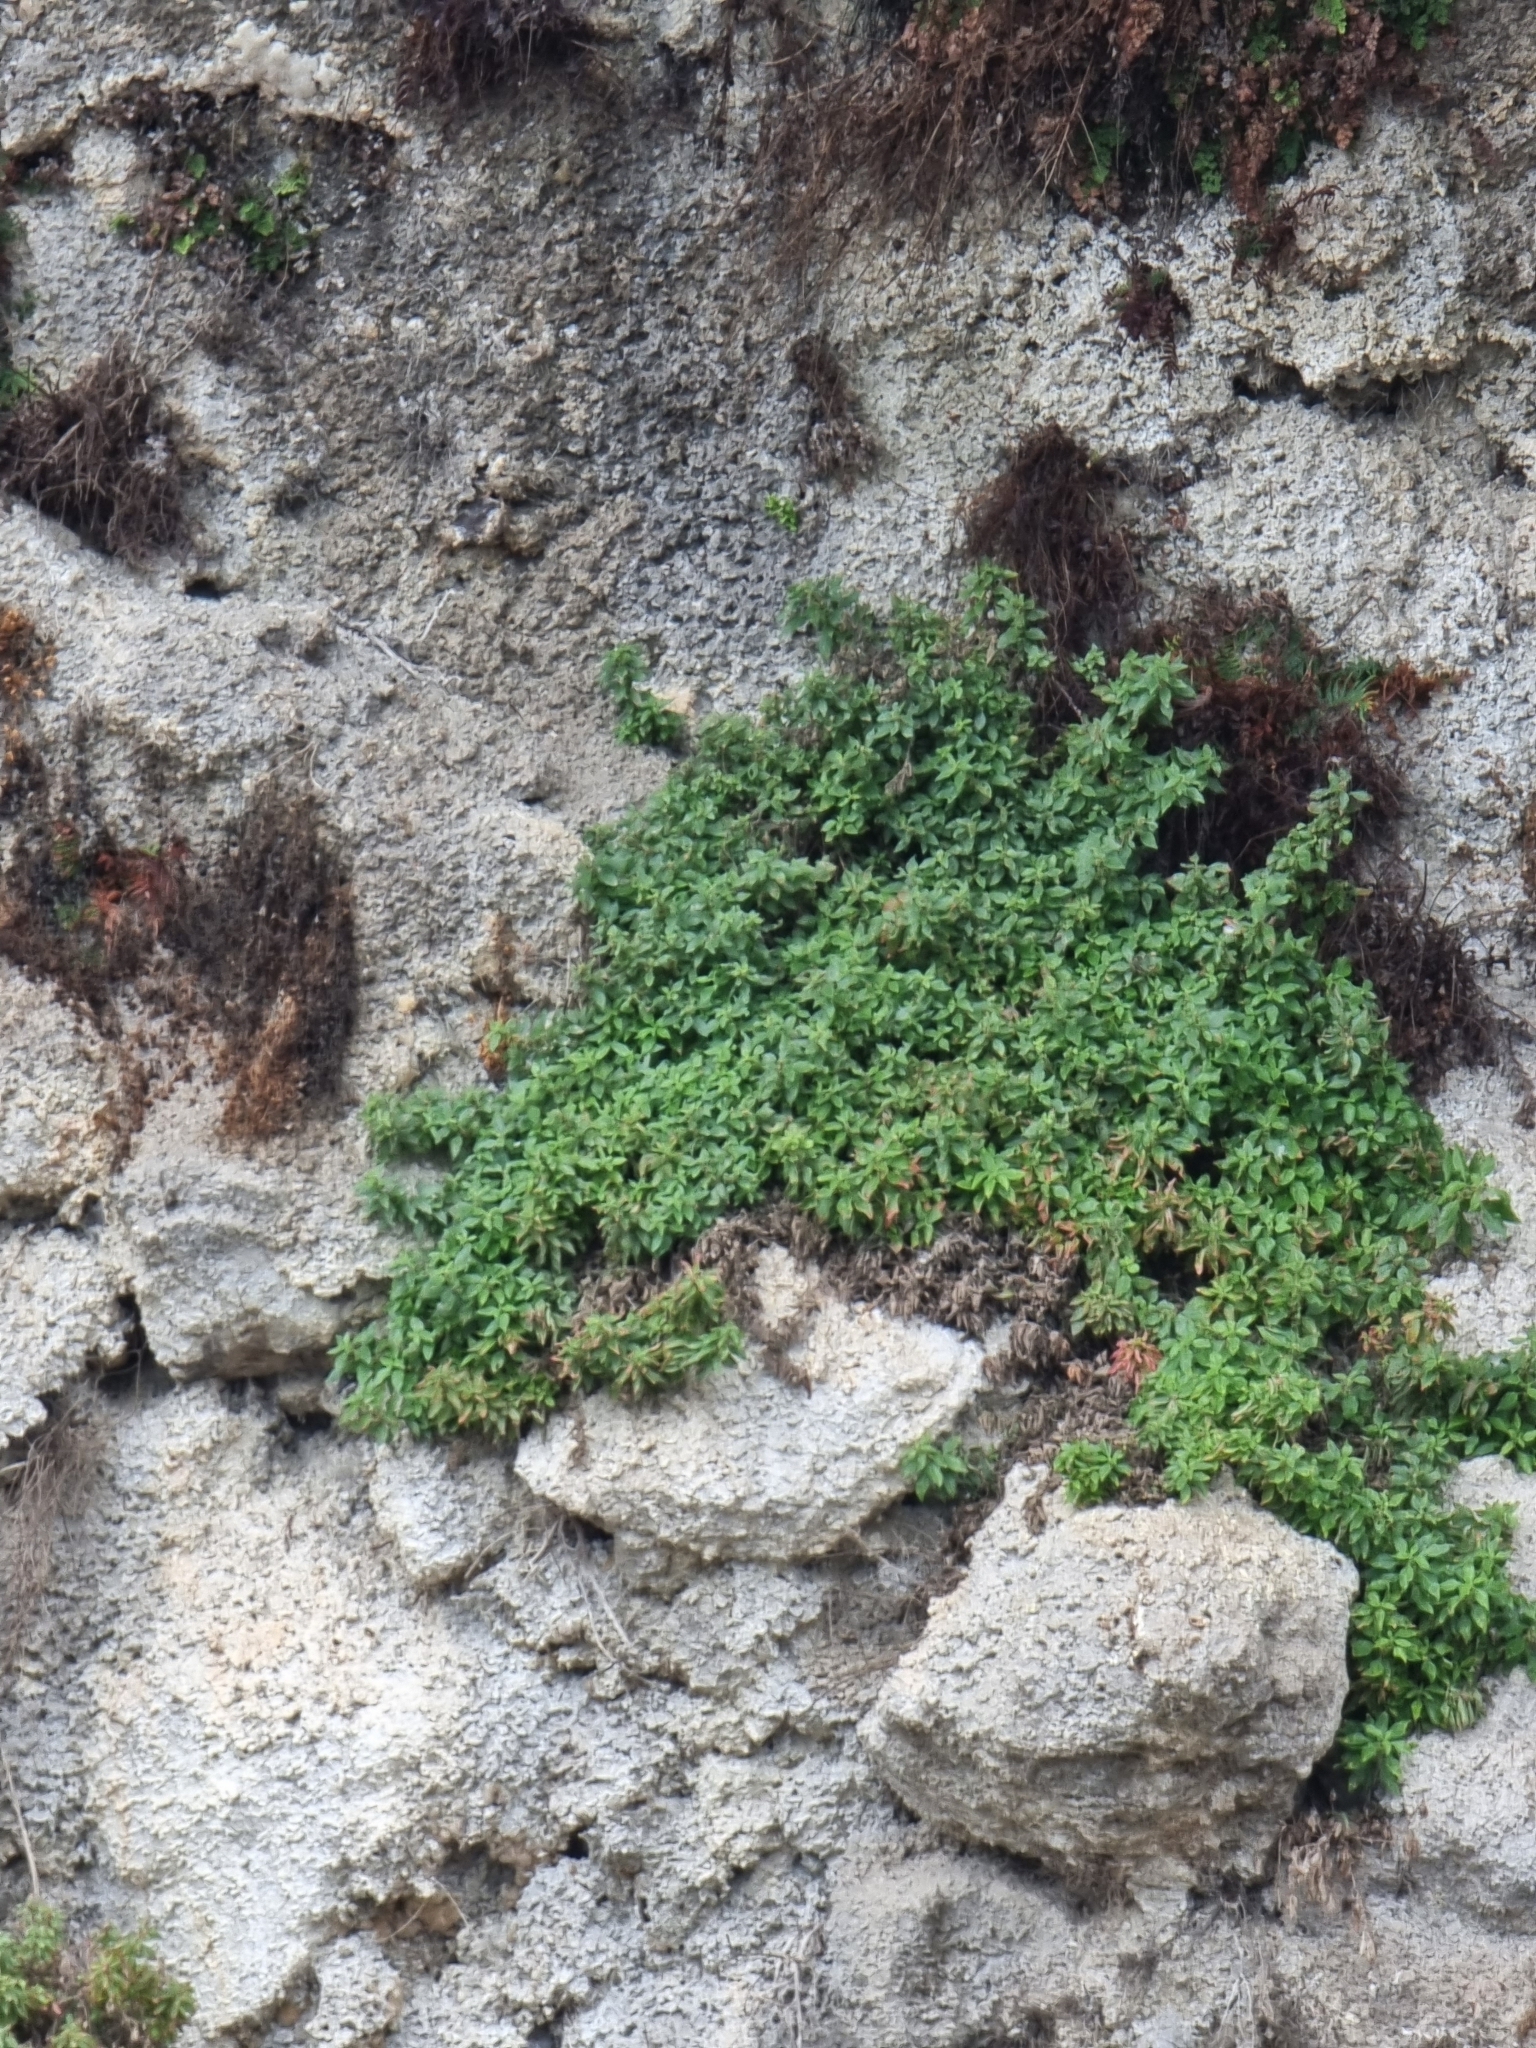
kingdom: Plantae
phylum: Tracheophyta
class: Magnoliopsida
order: Rosales
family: Urticaceae
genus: Parietaria
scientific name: Parietaria judaica
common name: Pellitory-of-the-wall
